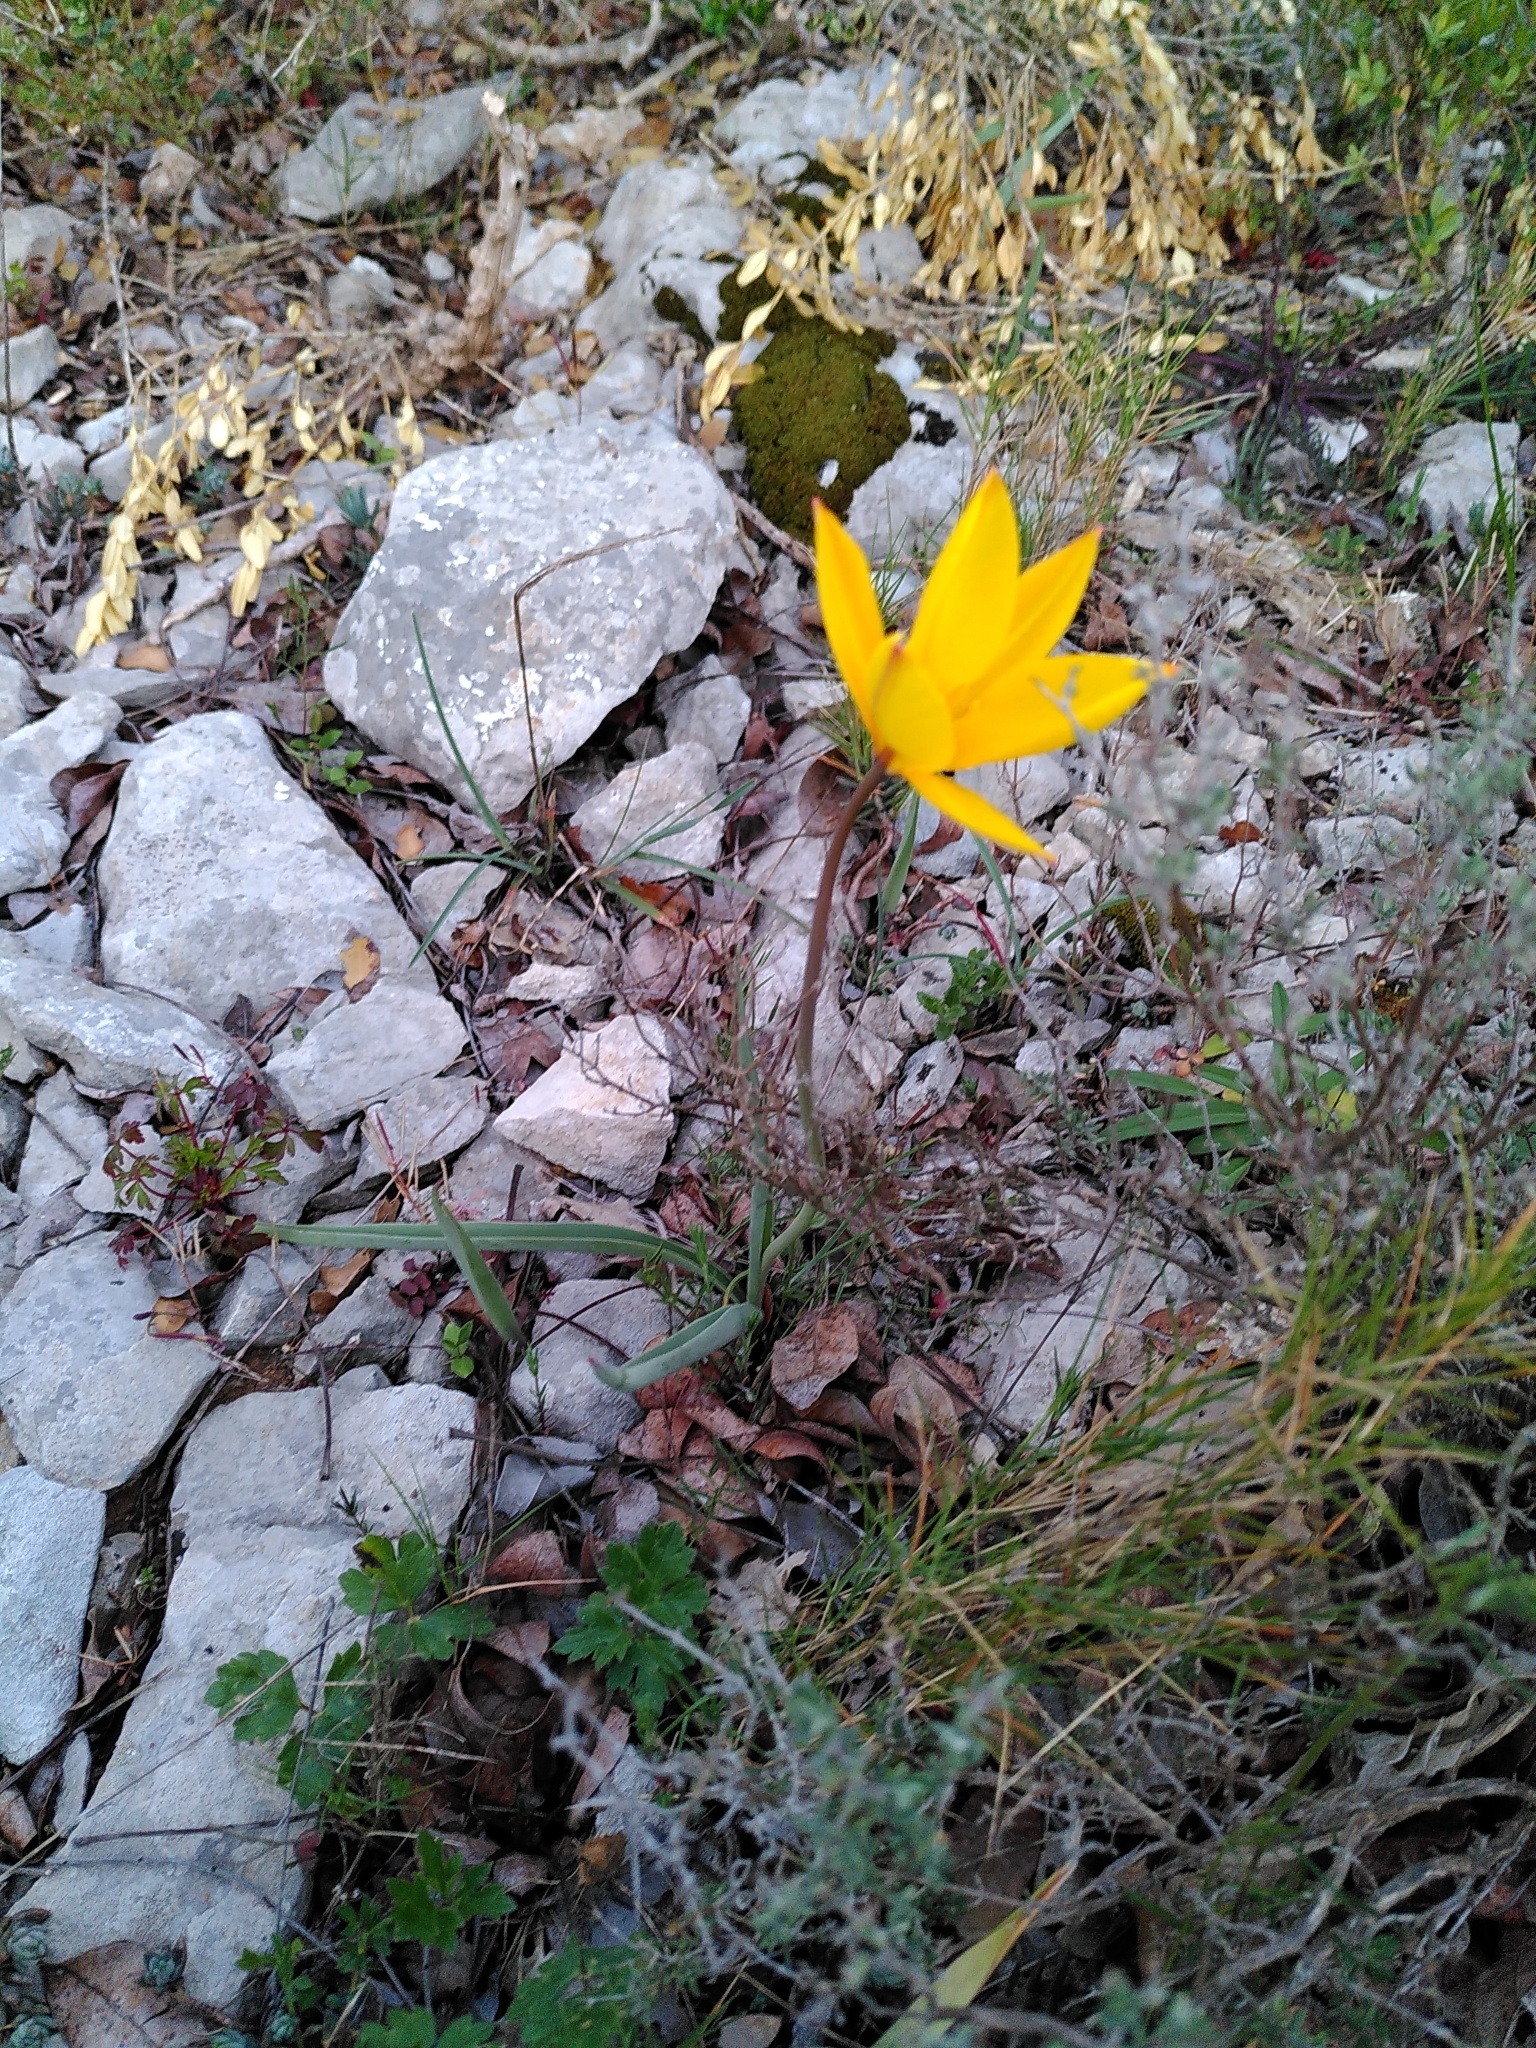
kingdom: Plantae
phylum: Tracheophyta
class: Liliopsida
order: Liliales
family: Liliaceae
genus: Tulipa
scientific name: Tulipa sylvestris
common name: Wild tulip
